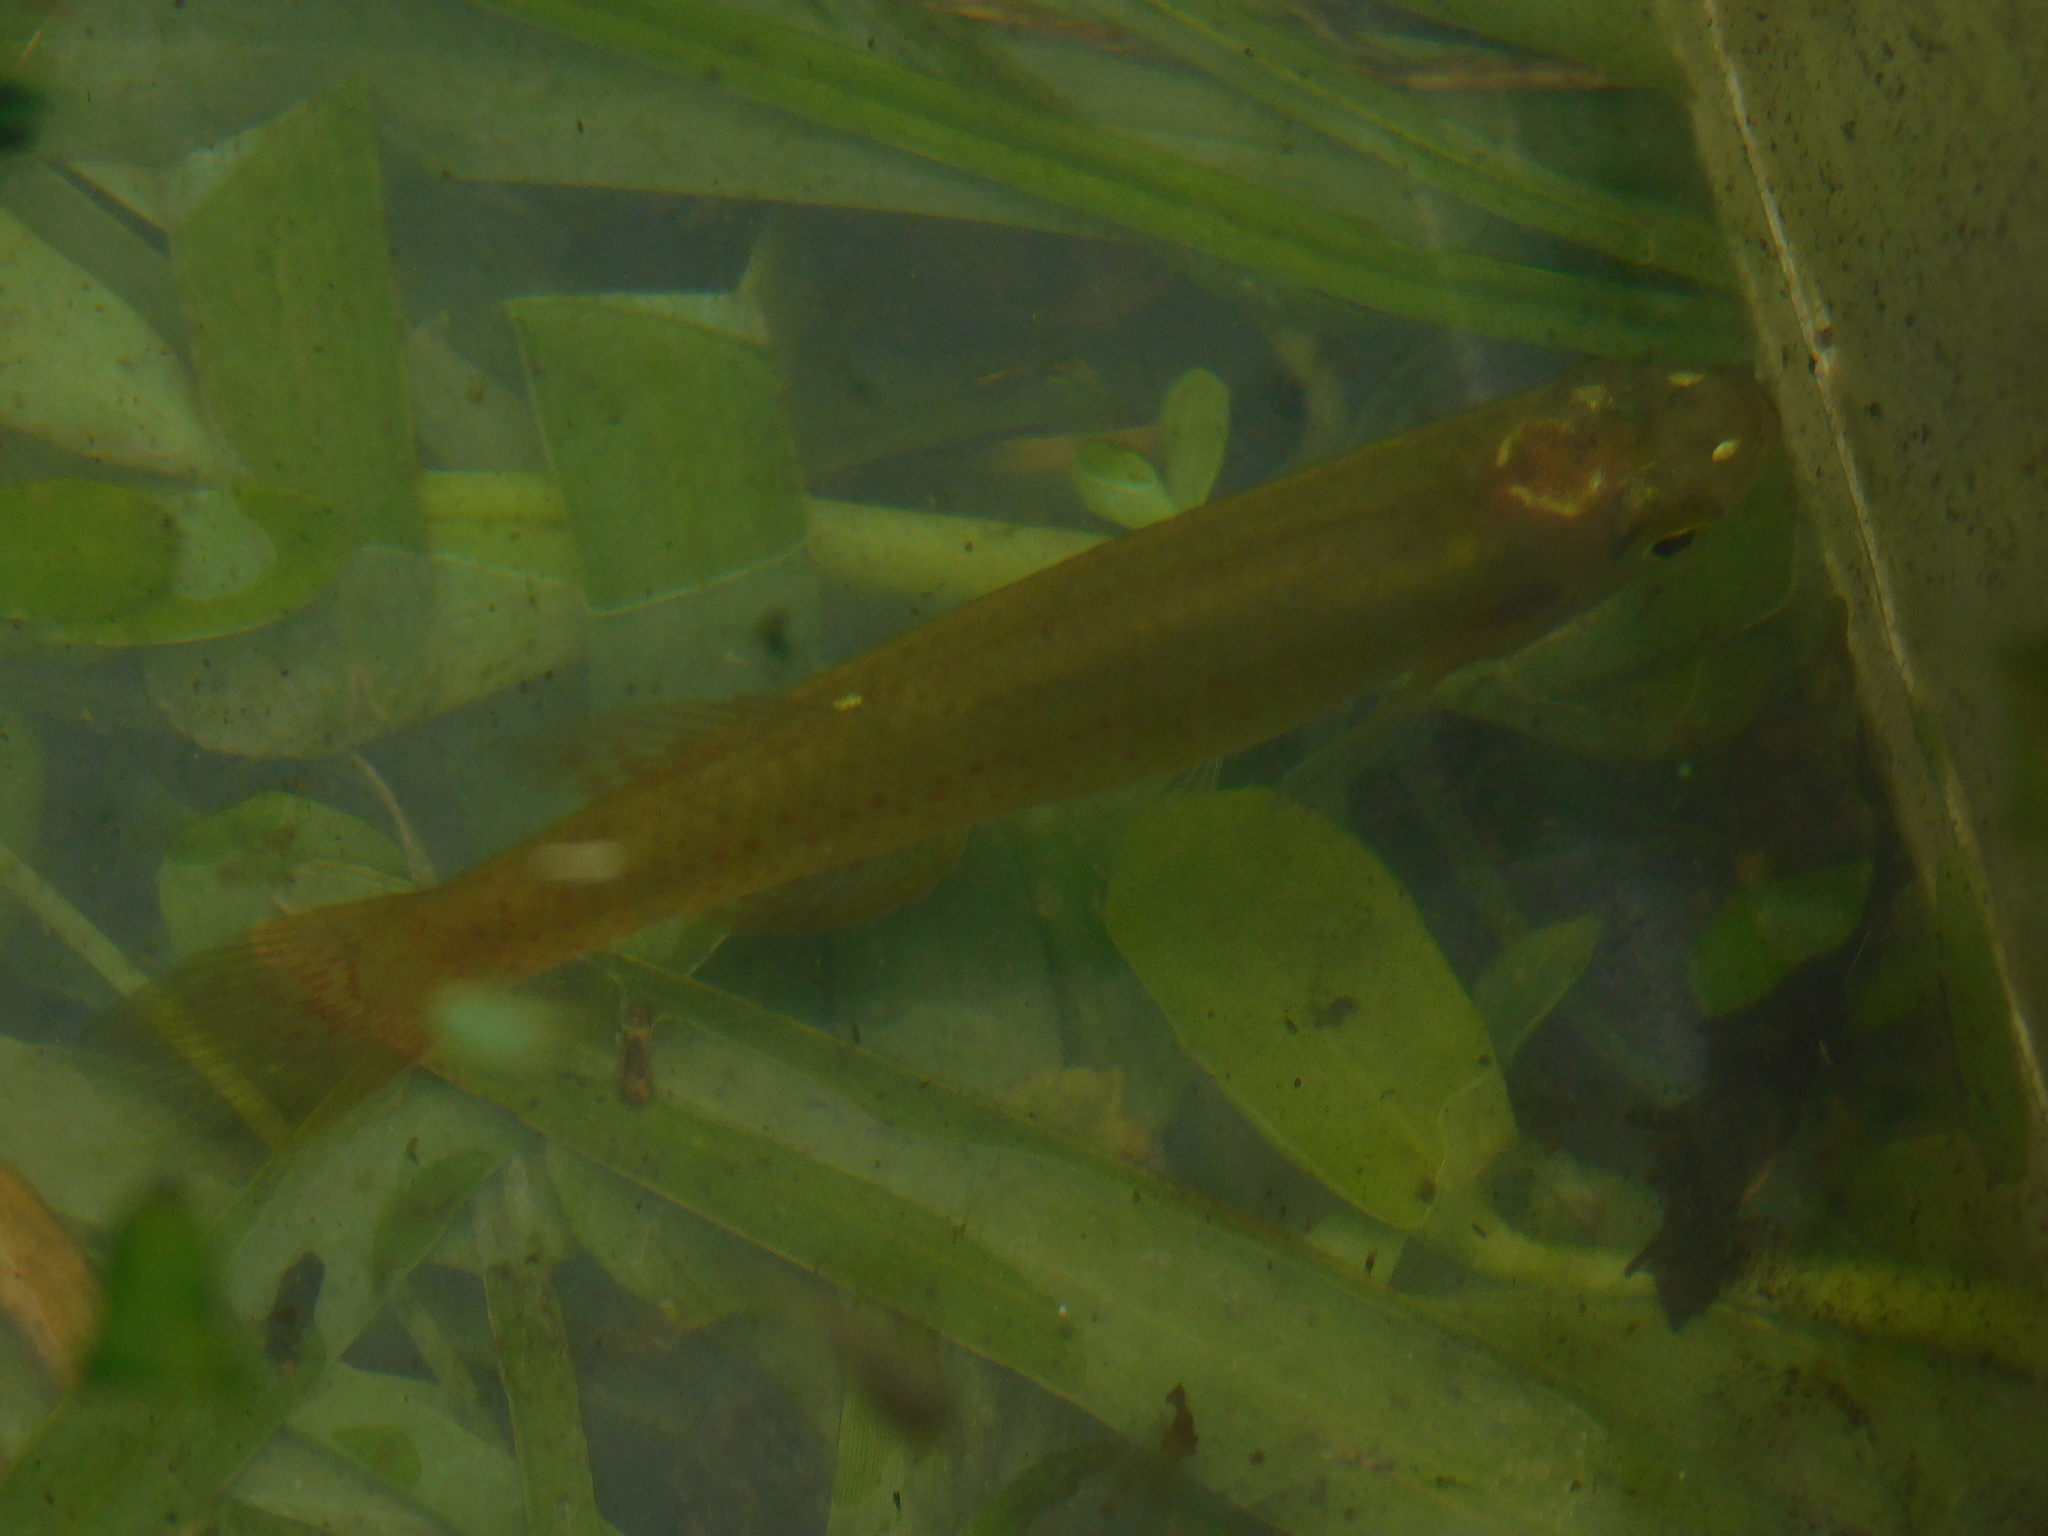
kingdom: Animalia
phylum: Chordata
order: Cyprinodontiformes
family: Fundulidae
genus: Fundulus
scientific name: Fundulus chrysotus
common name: Golden topminnow
